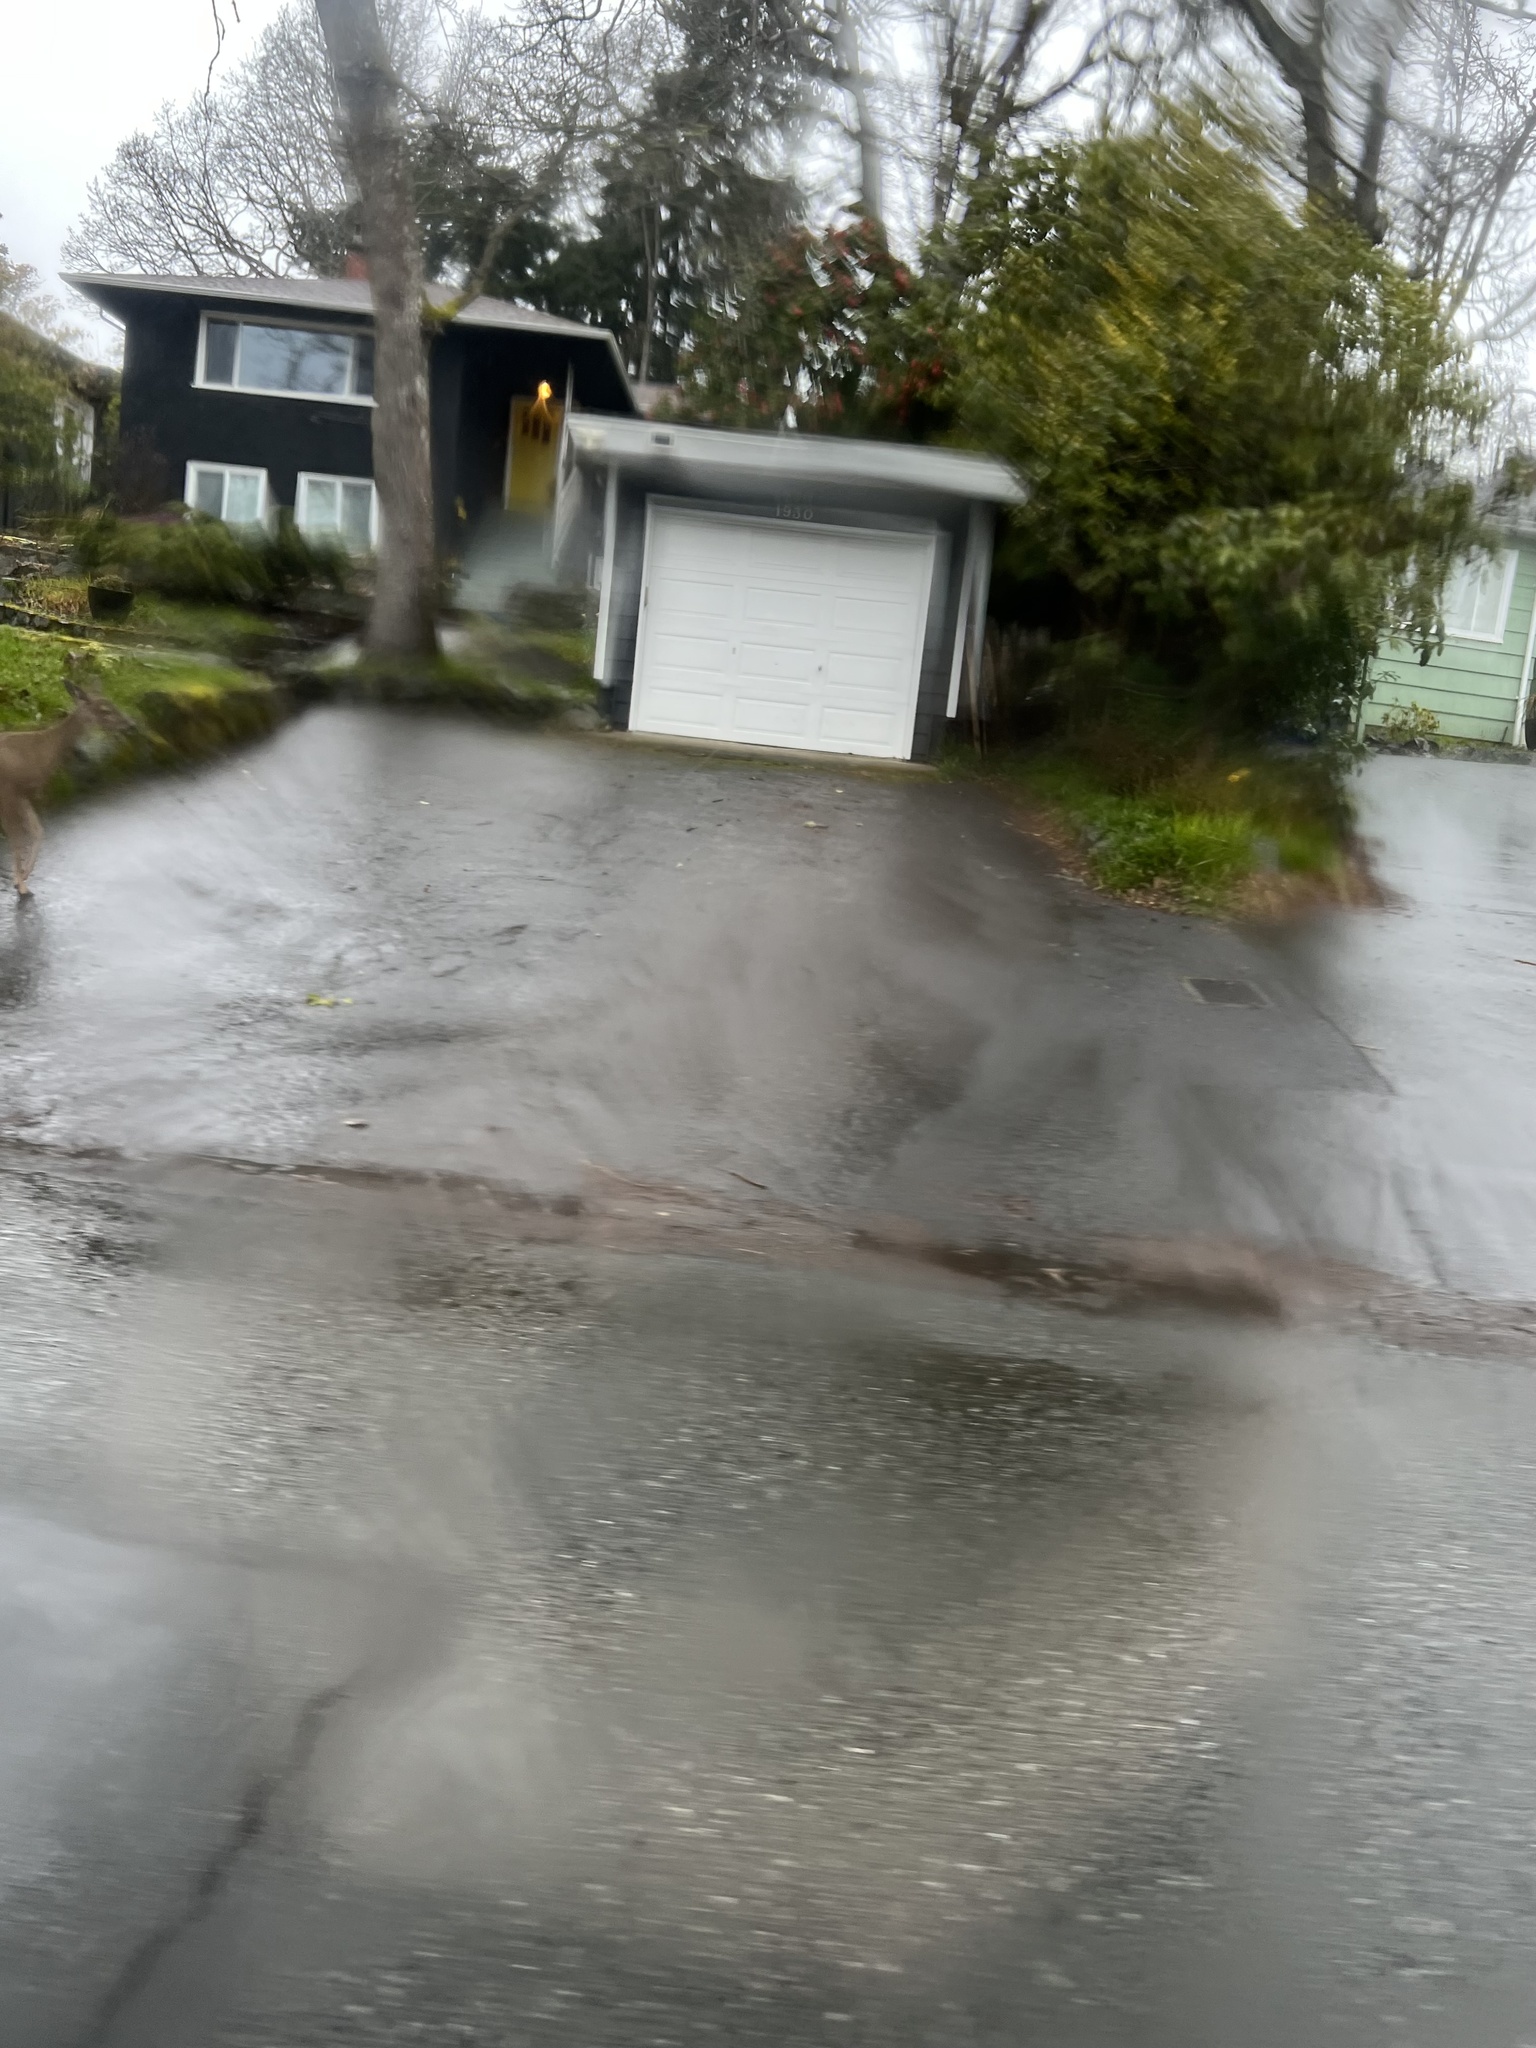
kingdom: Animalia
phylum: Chordata
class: Mammalia
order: Artiodactyla
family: Cervidae
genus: Odocoileus
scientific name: Odocoileus hemionus
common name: Mule deer
